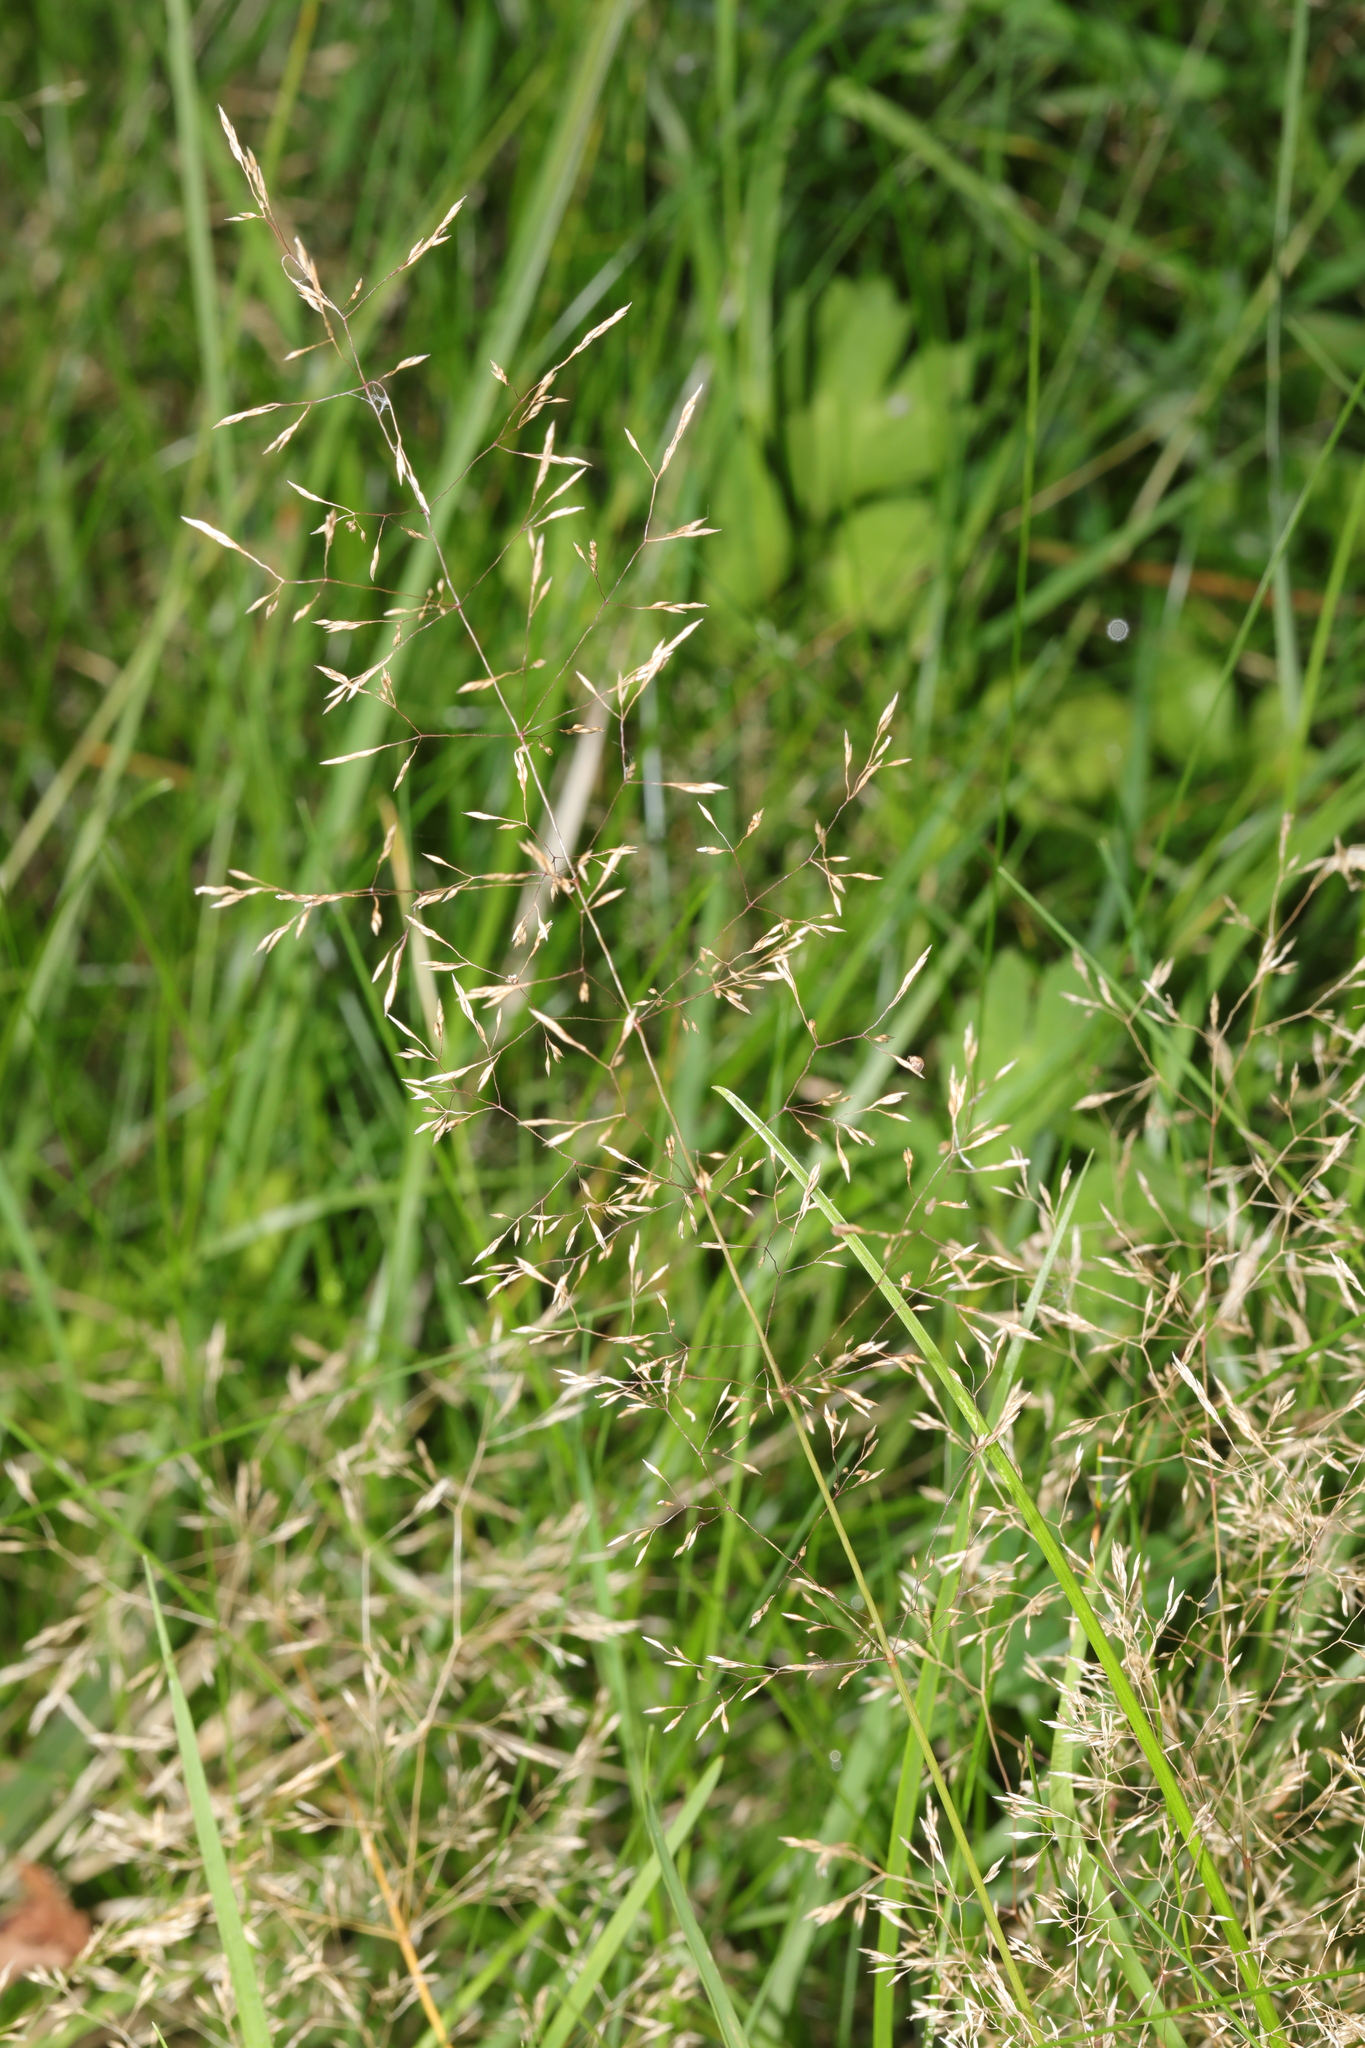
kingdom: Plantae
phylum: Tracheophyta
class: Liliopsida
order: Poales
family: Poaceae
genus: Agrostis
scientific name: Agrostis capillaris
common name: Colonial bentgrass
